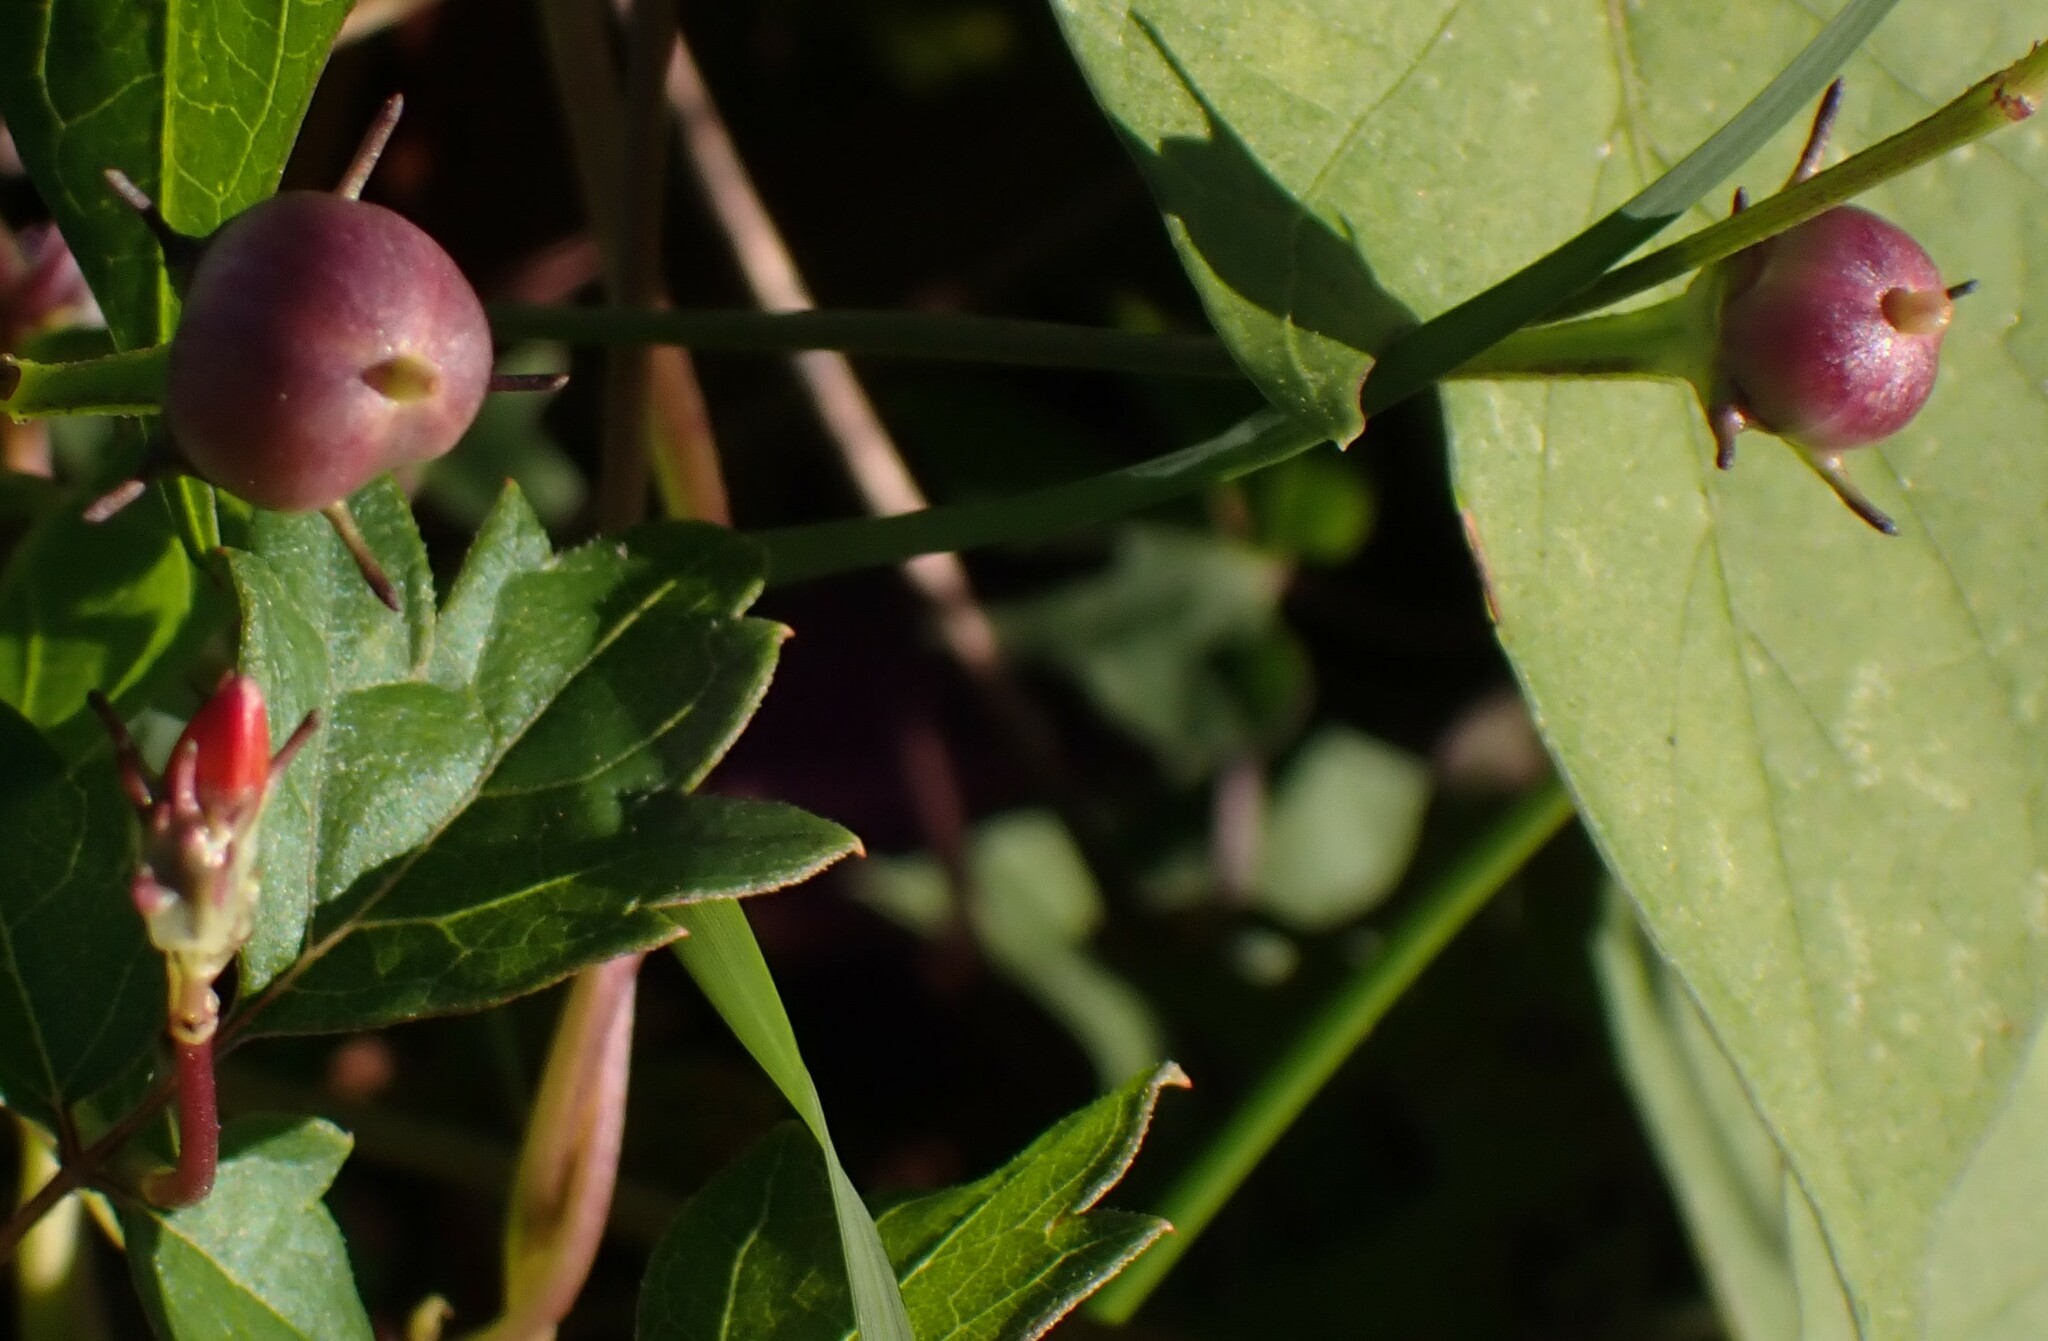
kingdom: Plantae
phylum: Tracheophyta
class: Magnoliopsida
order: Solanales
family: Convolvulaceae
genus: Ipomoea
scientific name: Ipomoea hederifolia
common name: Ivy-leaf morning-glory
